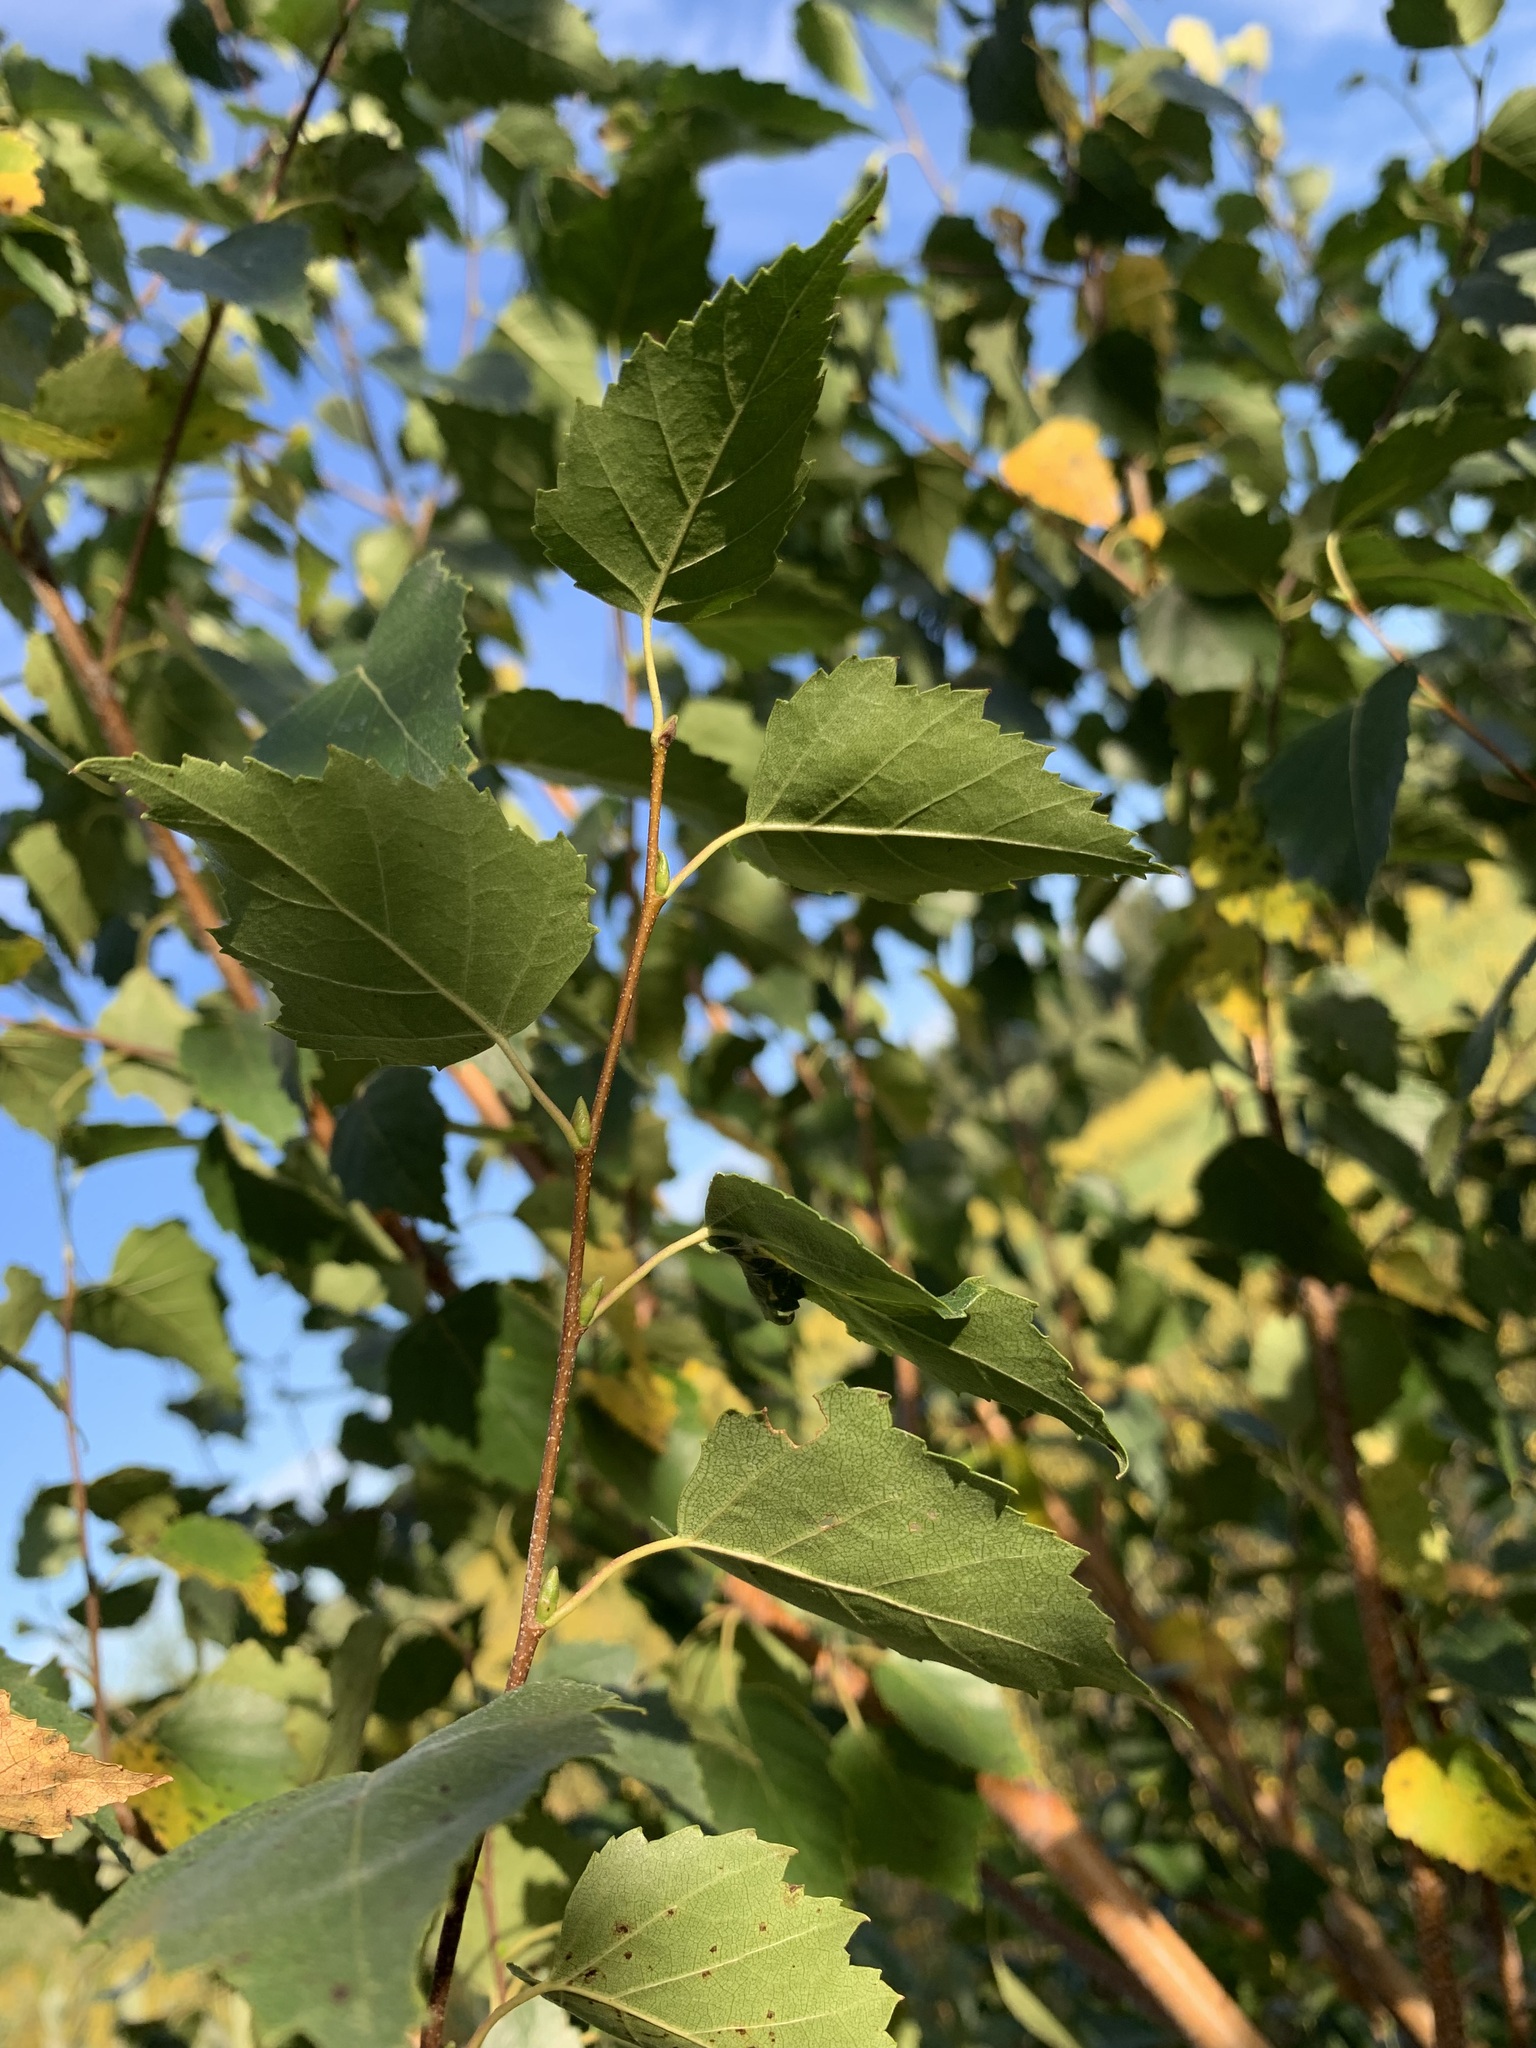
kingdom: Plantae
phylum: Tracheophyta
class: Magnoliopsida
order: Fagales
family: Betulaceae
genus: Betula
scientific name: Betula pendula
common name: Silver birch
